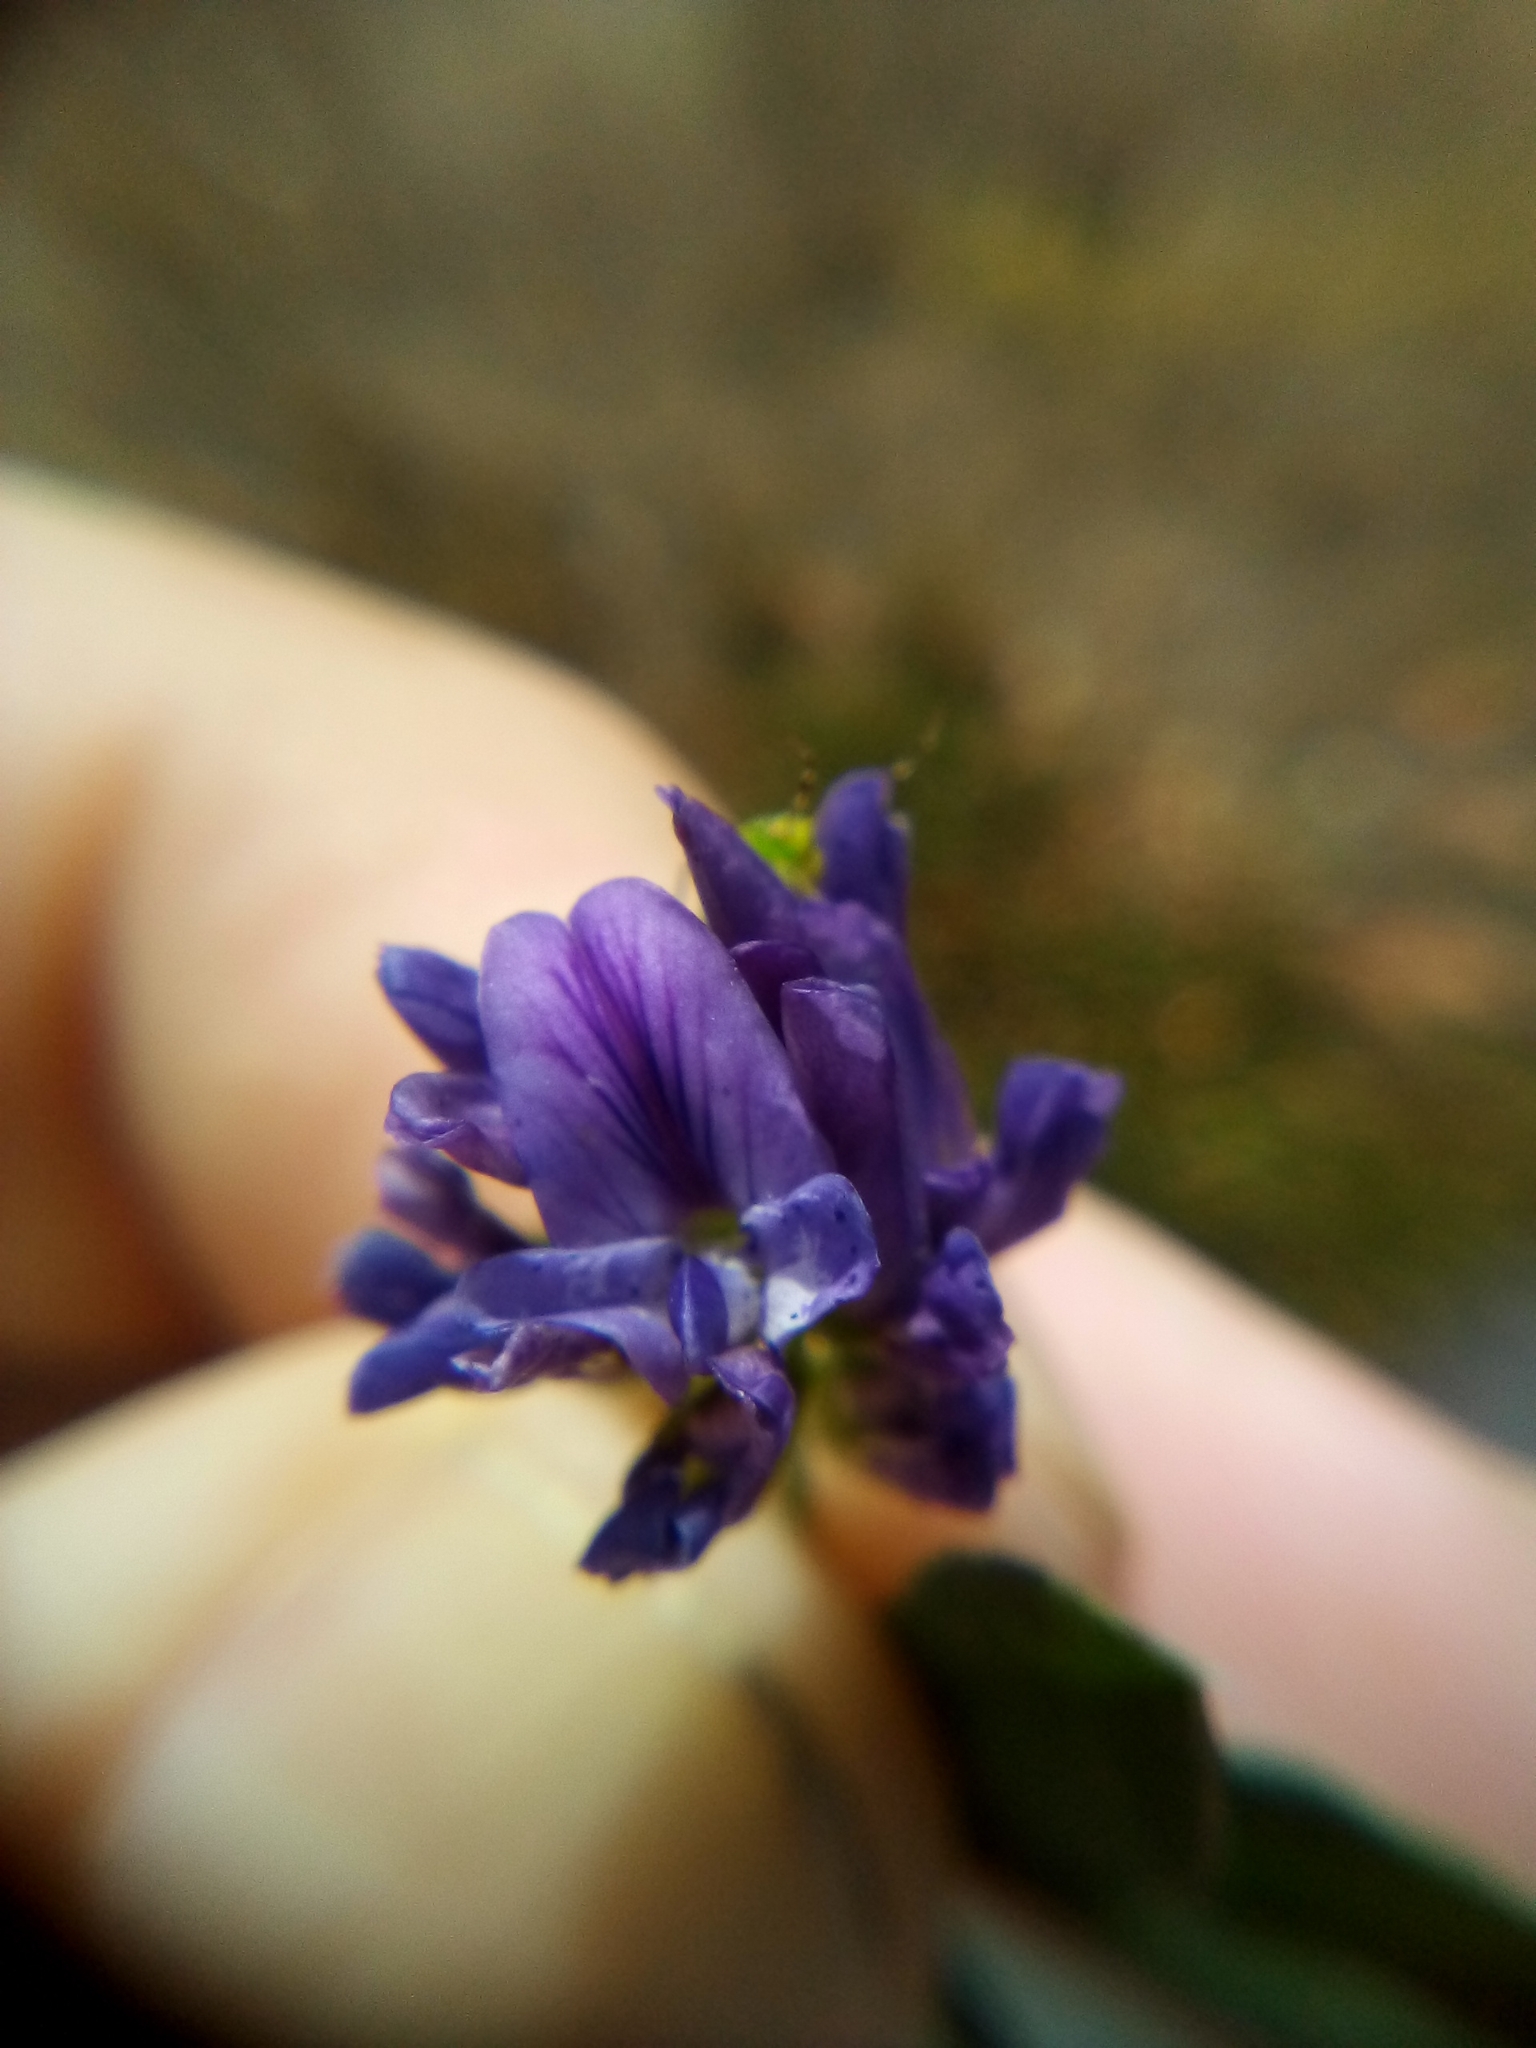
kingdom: Plantae
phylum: Tracheophyta
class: Magnoliopsida
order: Fabales
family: Fabaceae
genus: Medicago
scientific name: Medicago sativa
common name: Alfalfa
